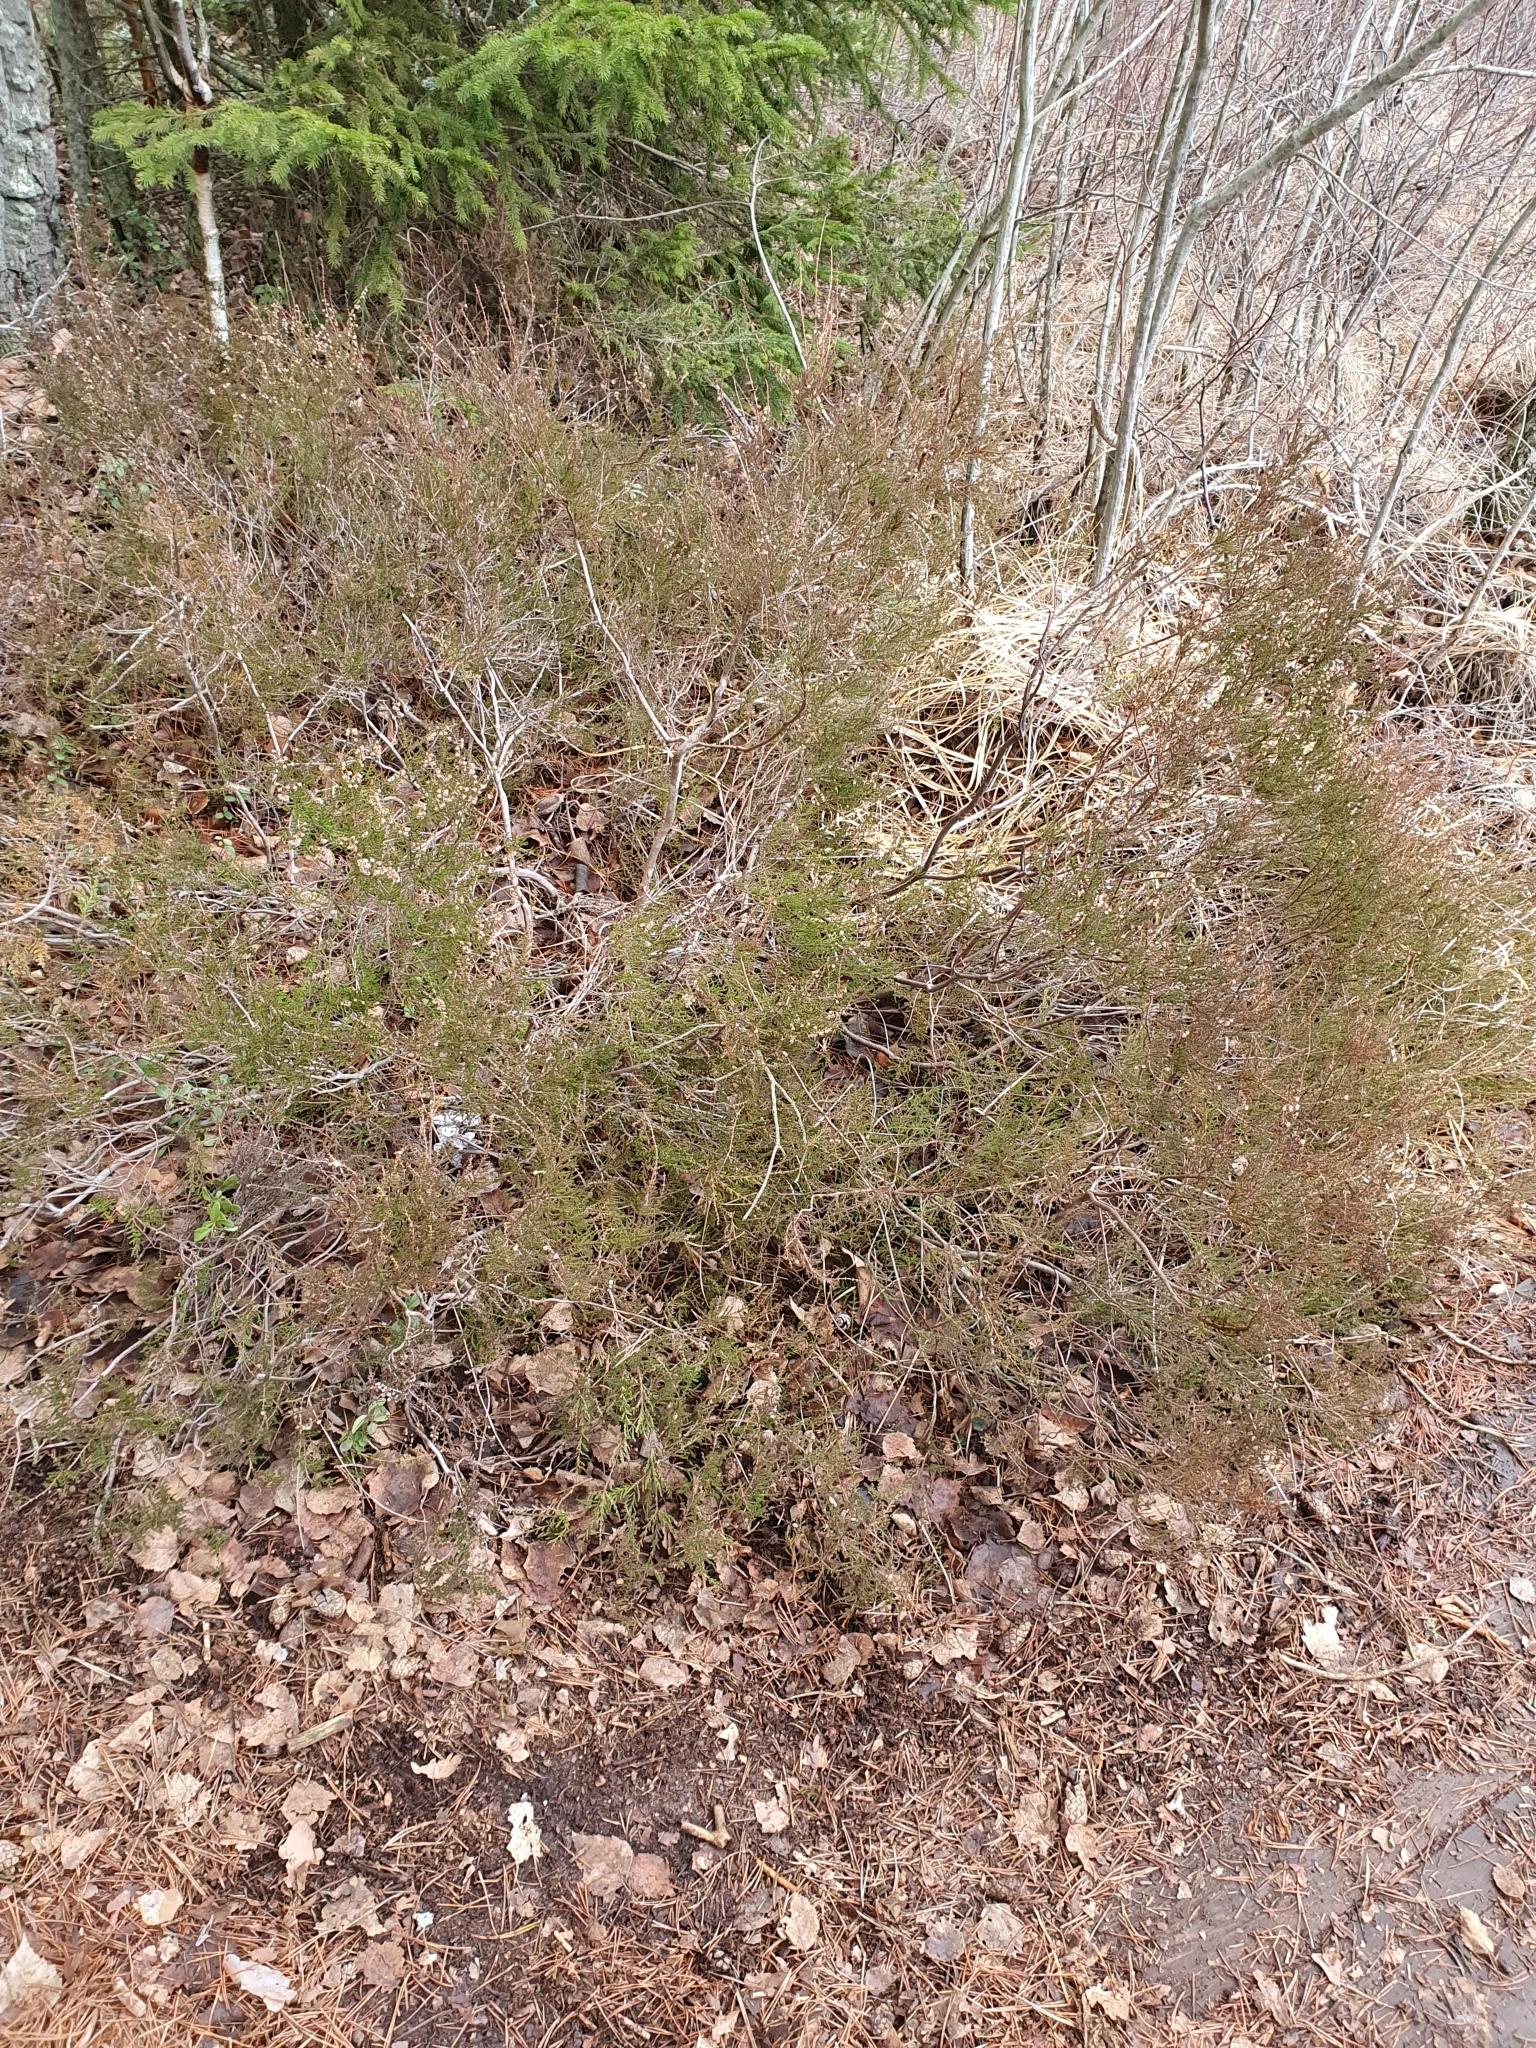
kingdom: Plantae
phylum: Tracheophyta
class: Magnoliopsida
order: Ericales
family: Ericaceae
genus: Calluna
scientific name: Calluna vulgaris
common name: Heather
